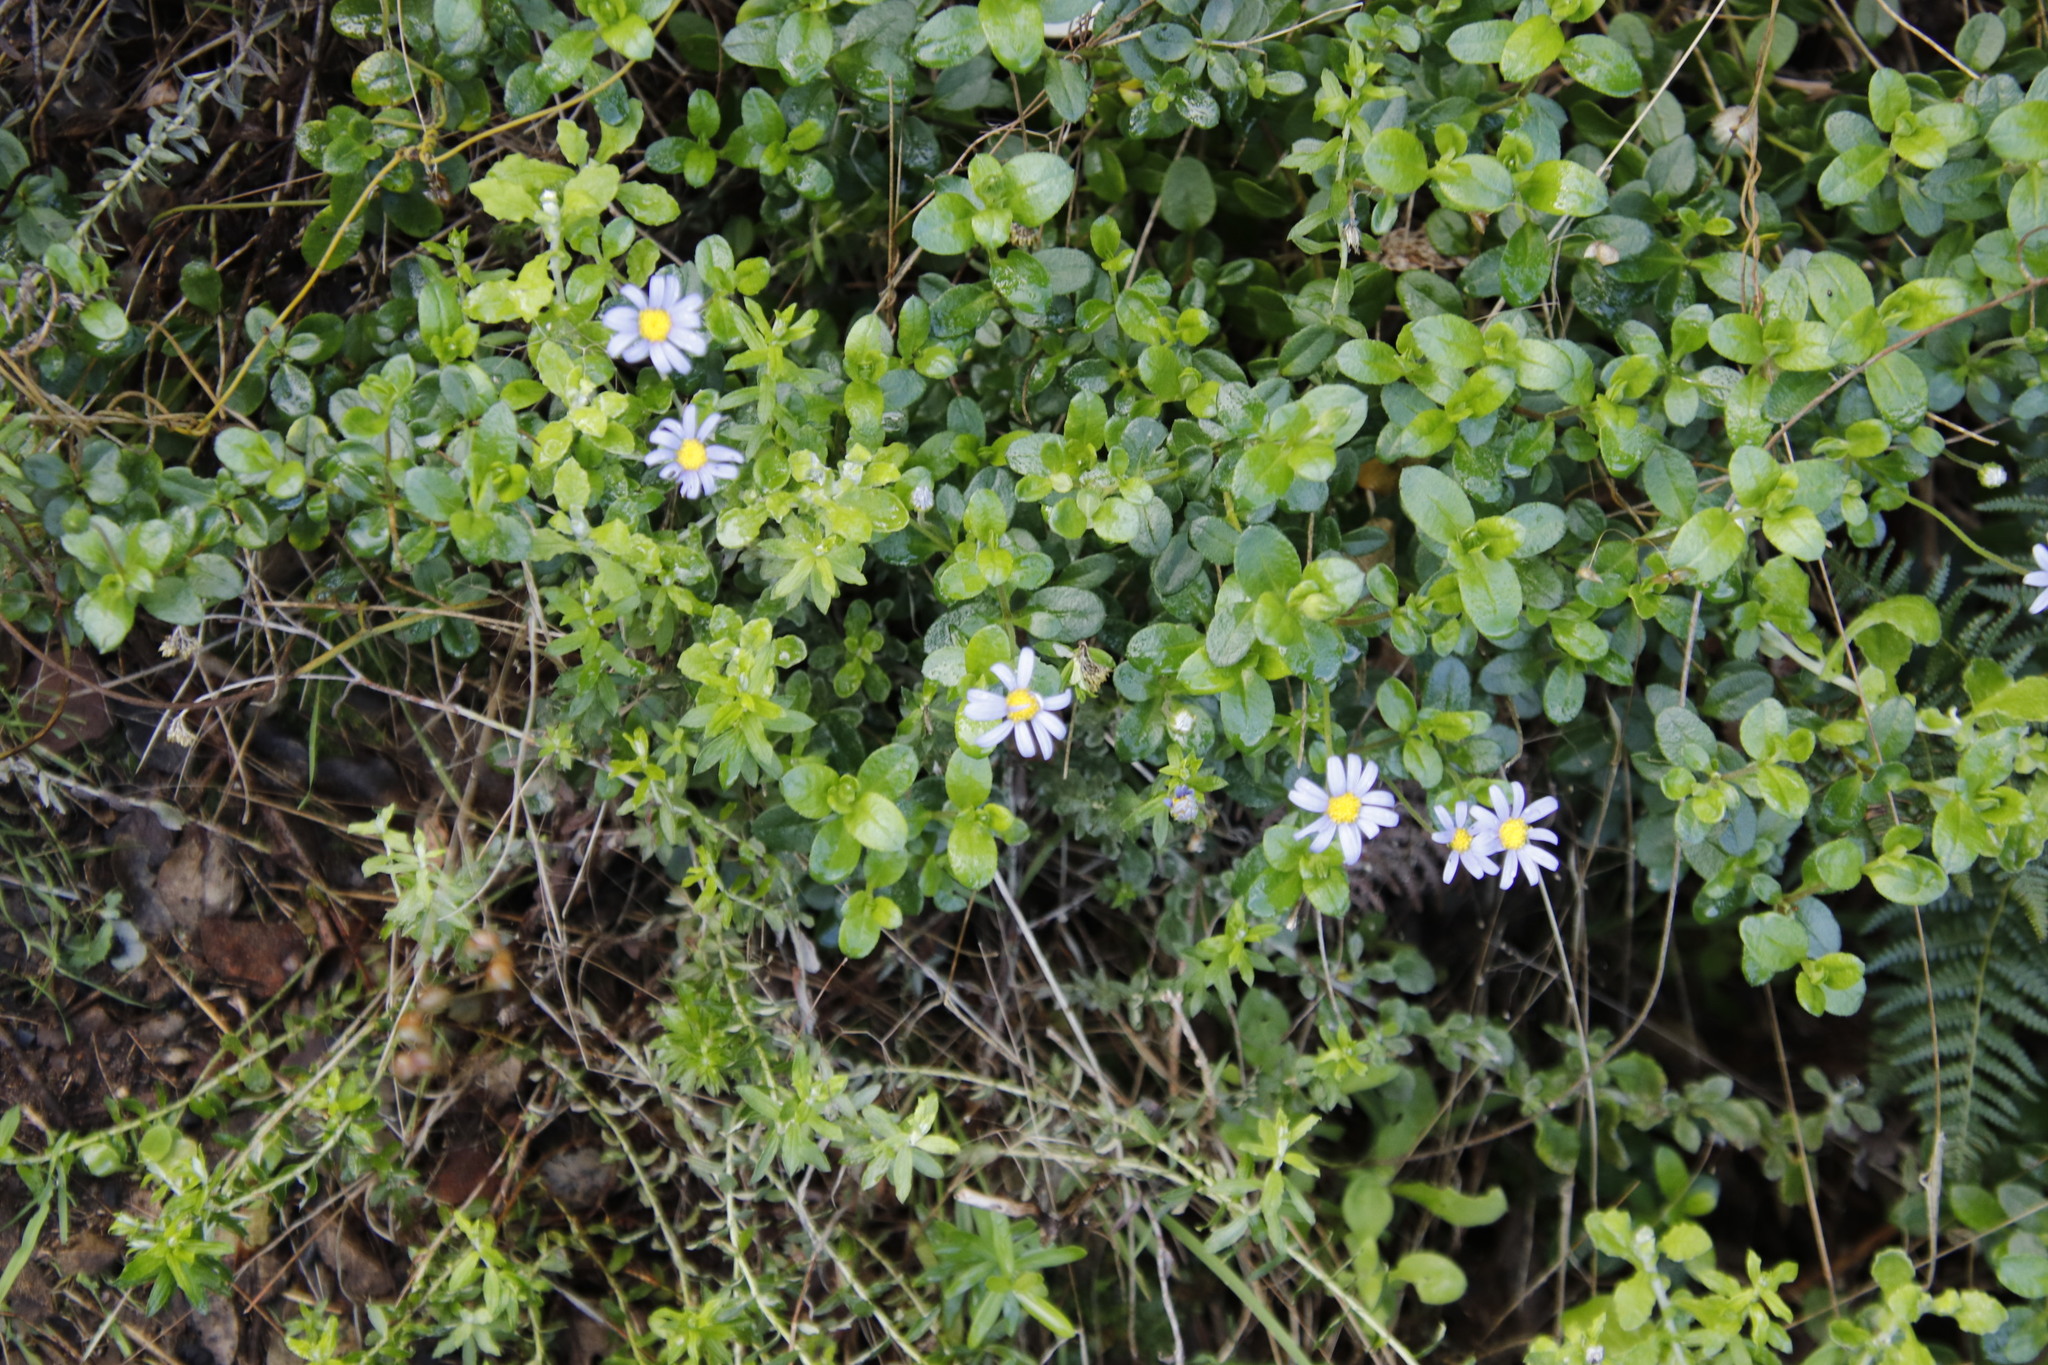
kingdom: Plantae
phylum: Tracheophyta
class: Magnoliopsida
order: Asterales
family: Asteraceae
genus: Felicia
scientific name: Felicia amelloides
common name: Blue marguerite
